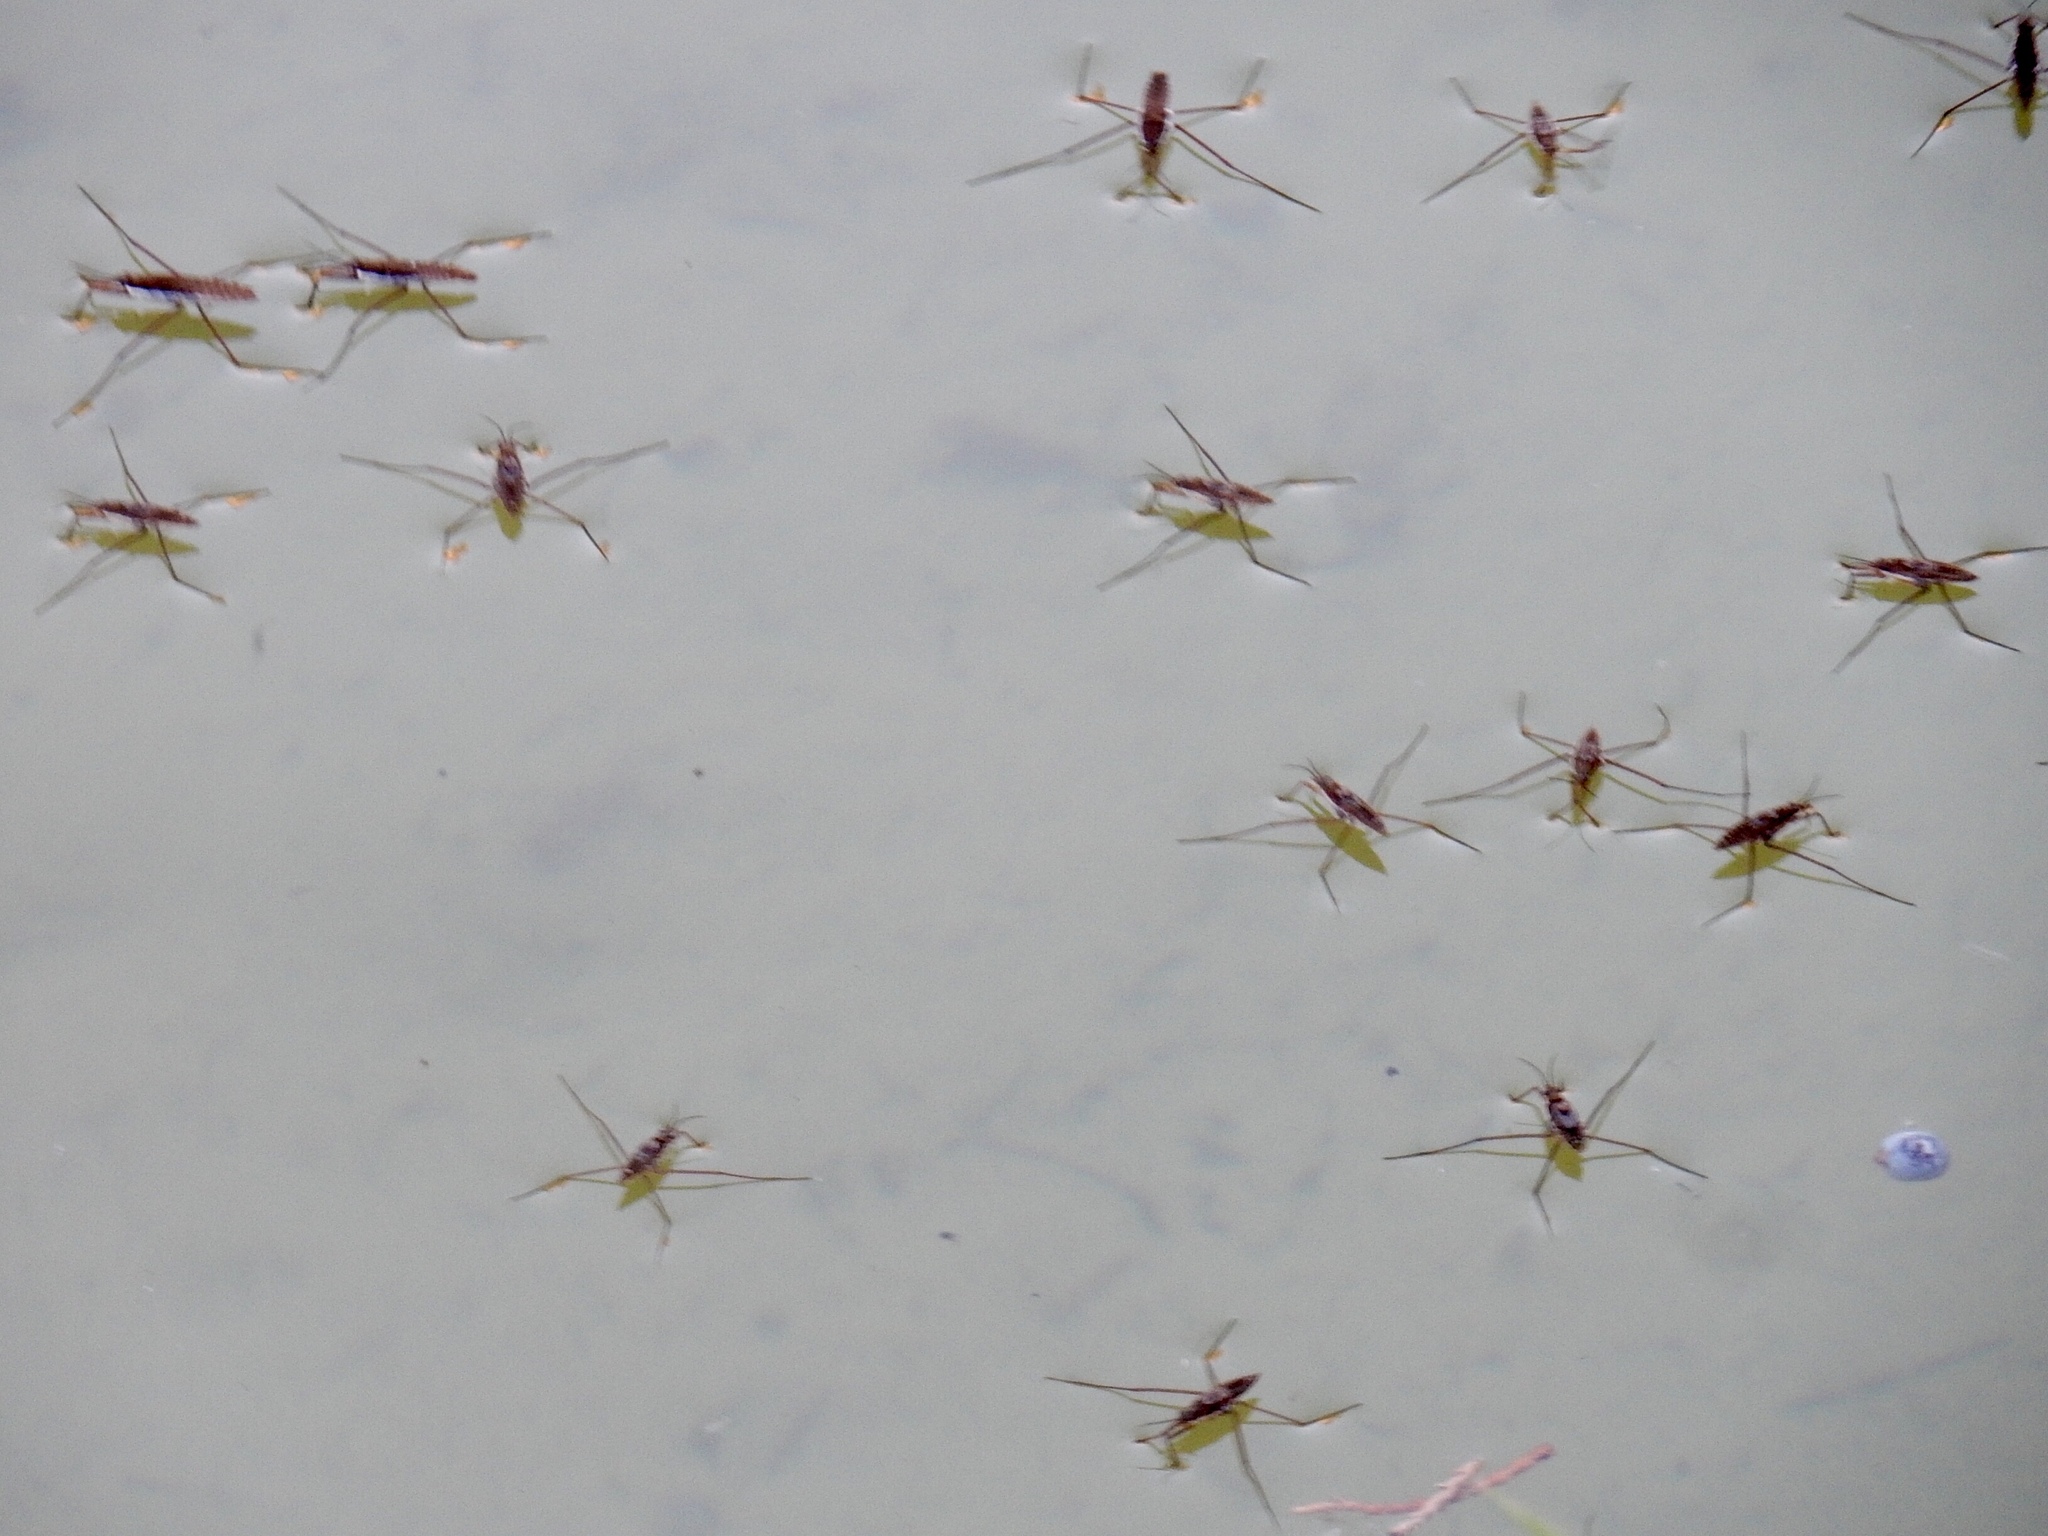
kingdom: Animalia
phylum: Arthropoda
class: Insecta
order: Hemiptera
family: Gerridae
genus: Aquarius
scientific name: Aquarius remigis
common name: Common water strider
